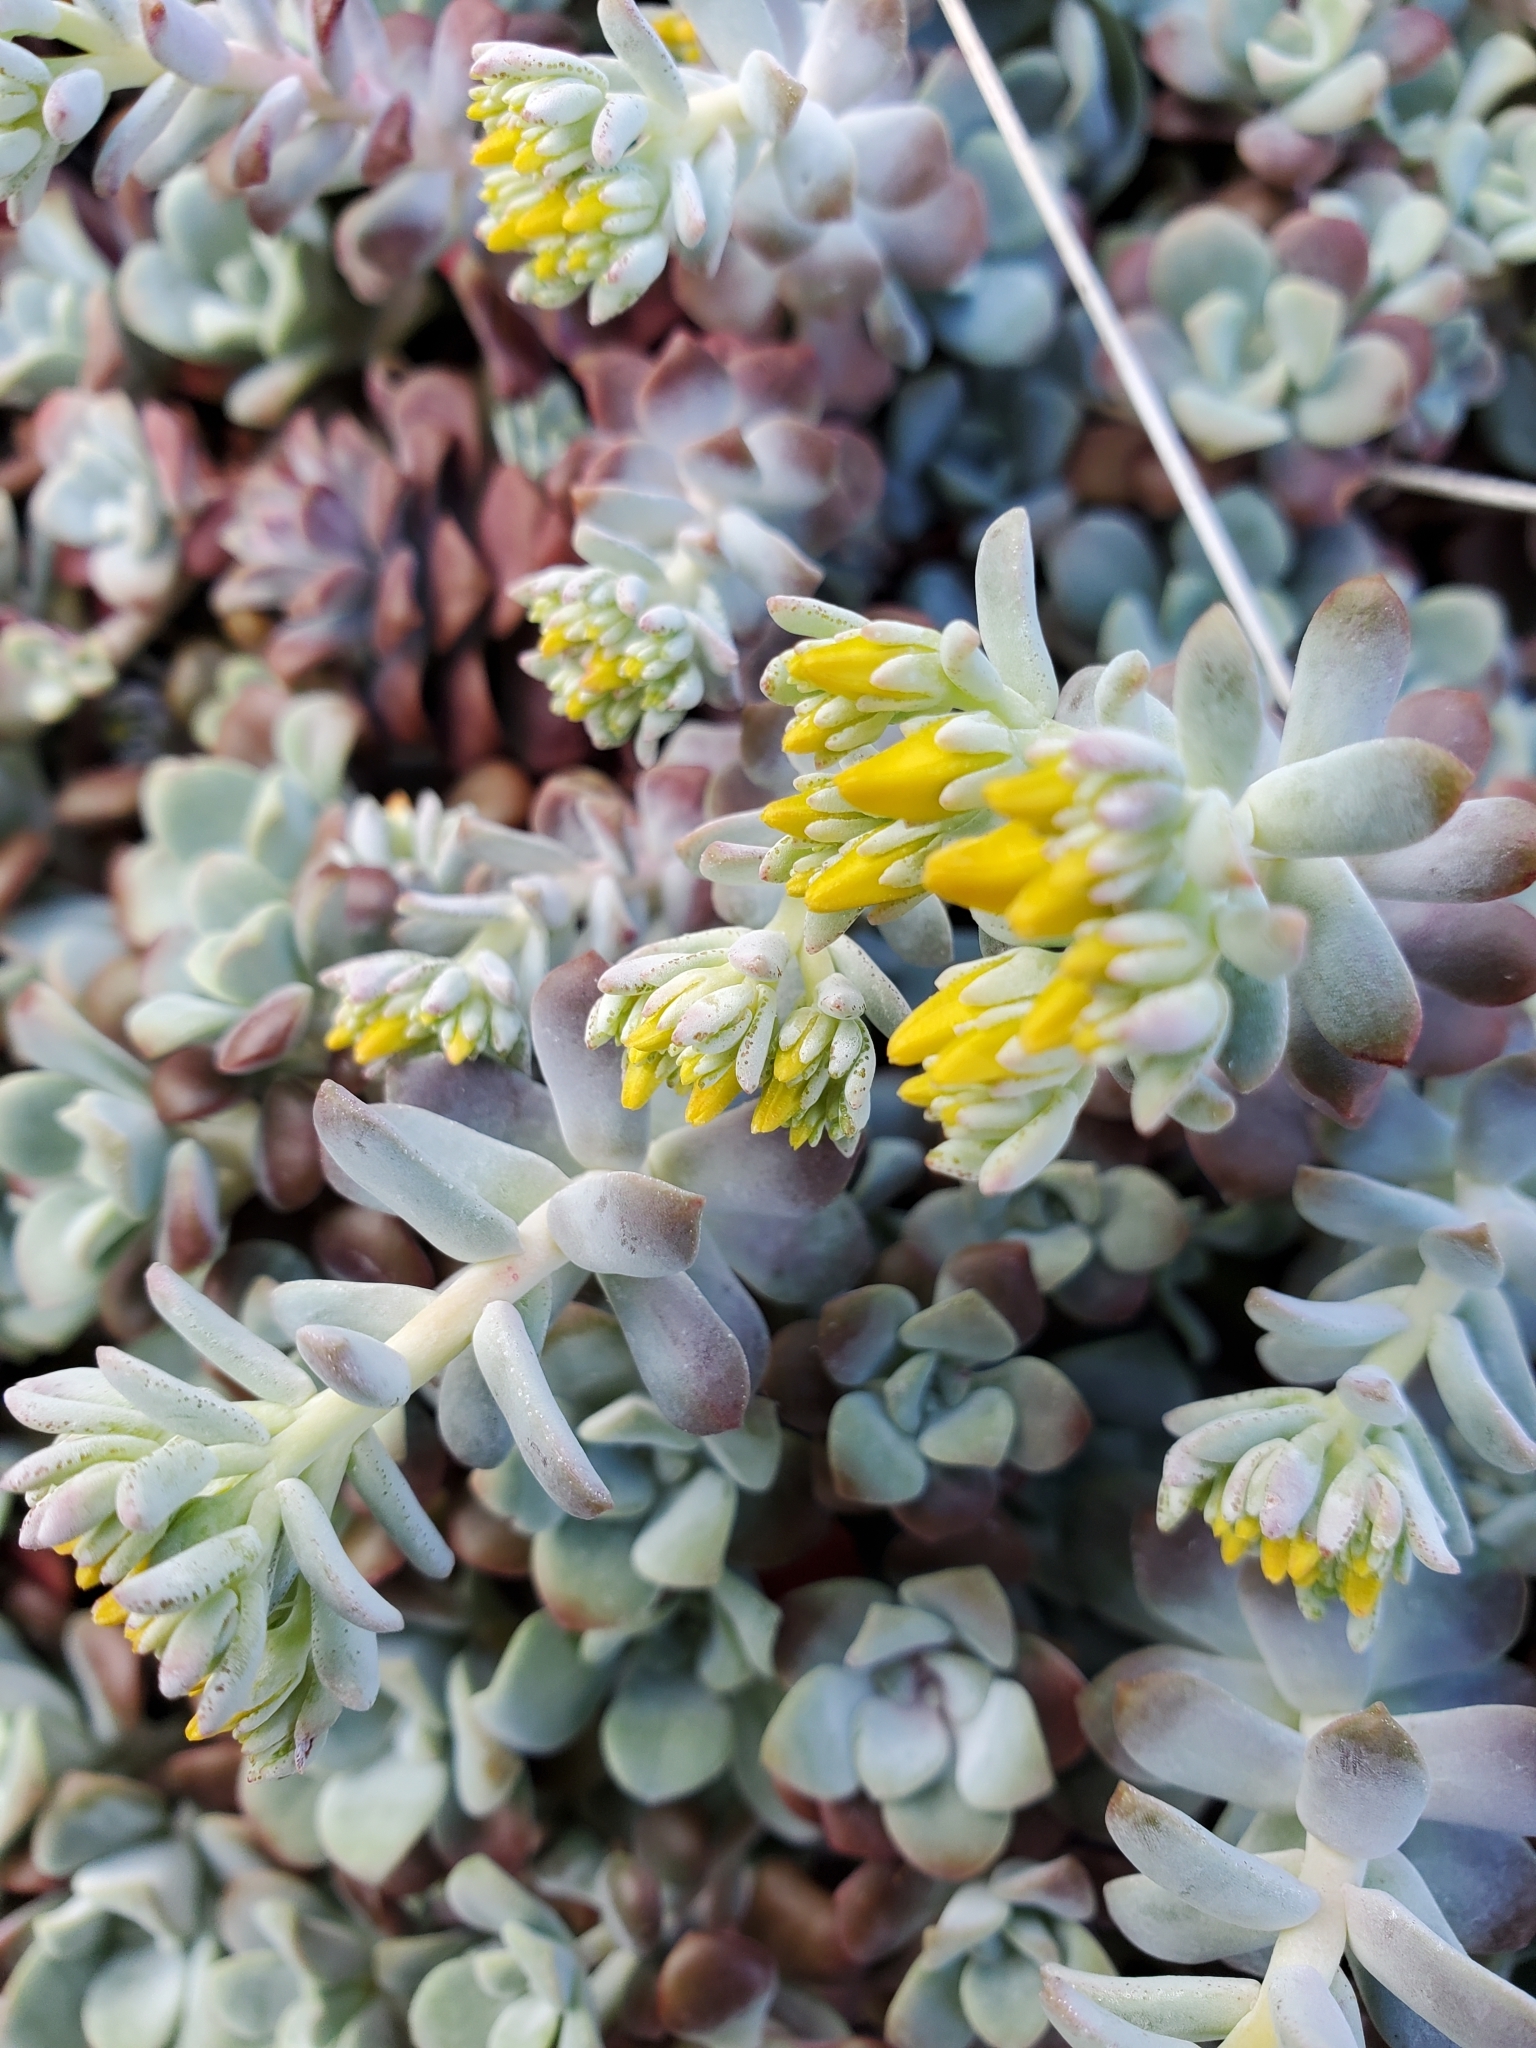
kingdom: Plantae
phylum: Tracheophyta
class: Magnoliopsida
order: Saxifragales
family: Crassulaceae
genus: Sedum
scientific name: Sedum spathulifolium
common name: Colorado stonecrop
